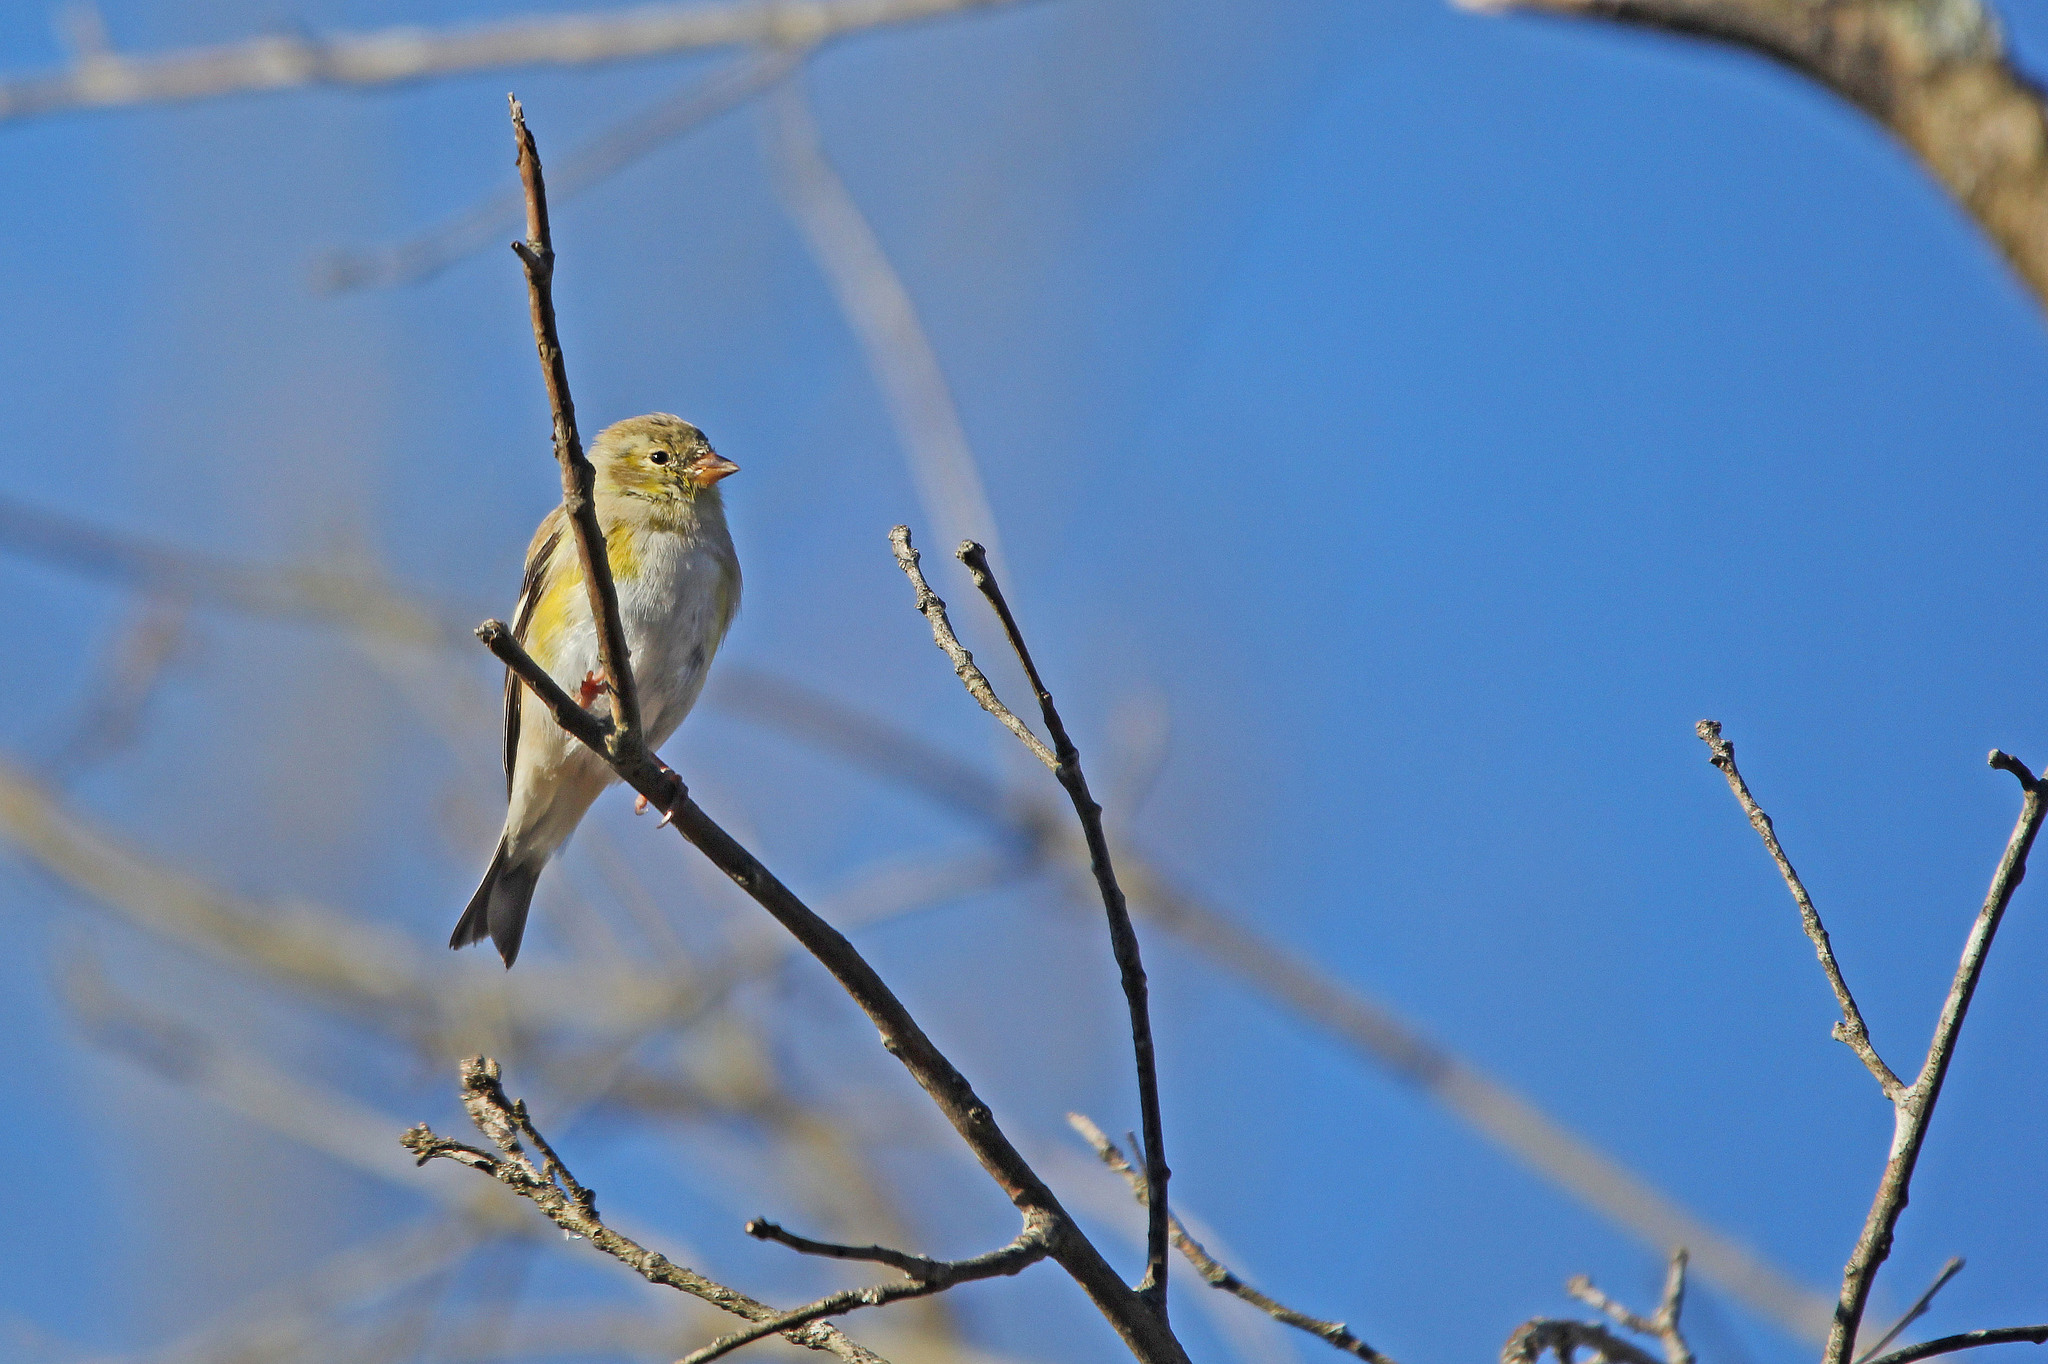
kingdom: Animalia
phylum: Chordata
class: Aves
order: Passeriformes
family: Fringillidae
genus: Spinus
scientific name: Spinus tristis
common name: American goldfinch
